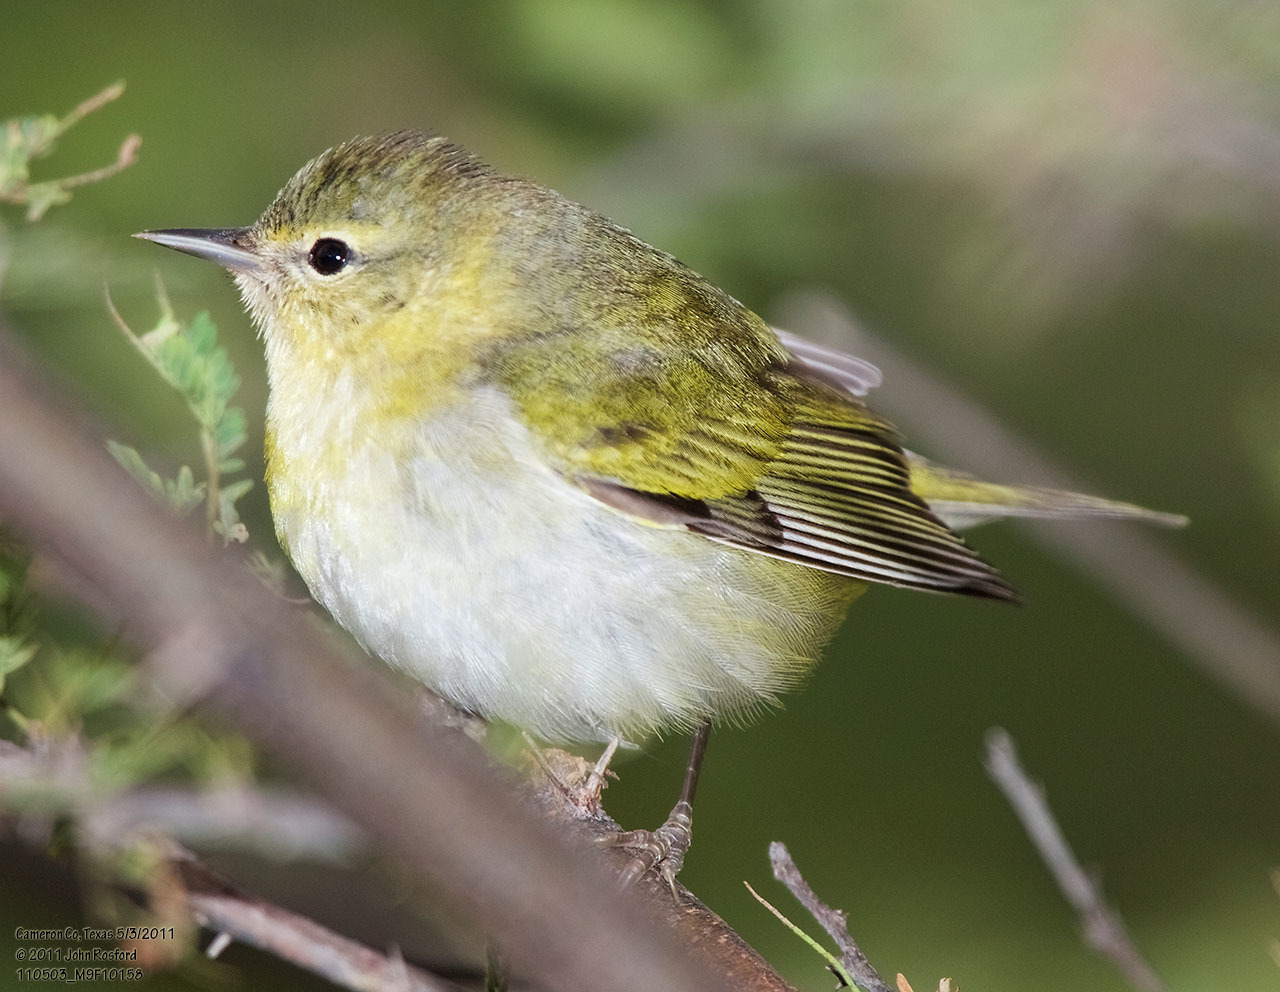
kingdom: Animalia
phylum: Chordata
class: Aves
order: Passeriformes
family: Parulidae
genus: Leiothlypis
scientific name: Leiothlypis peregrina
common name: Tennessee warbler
